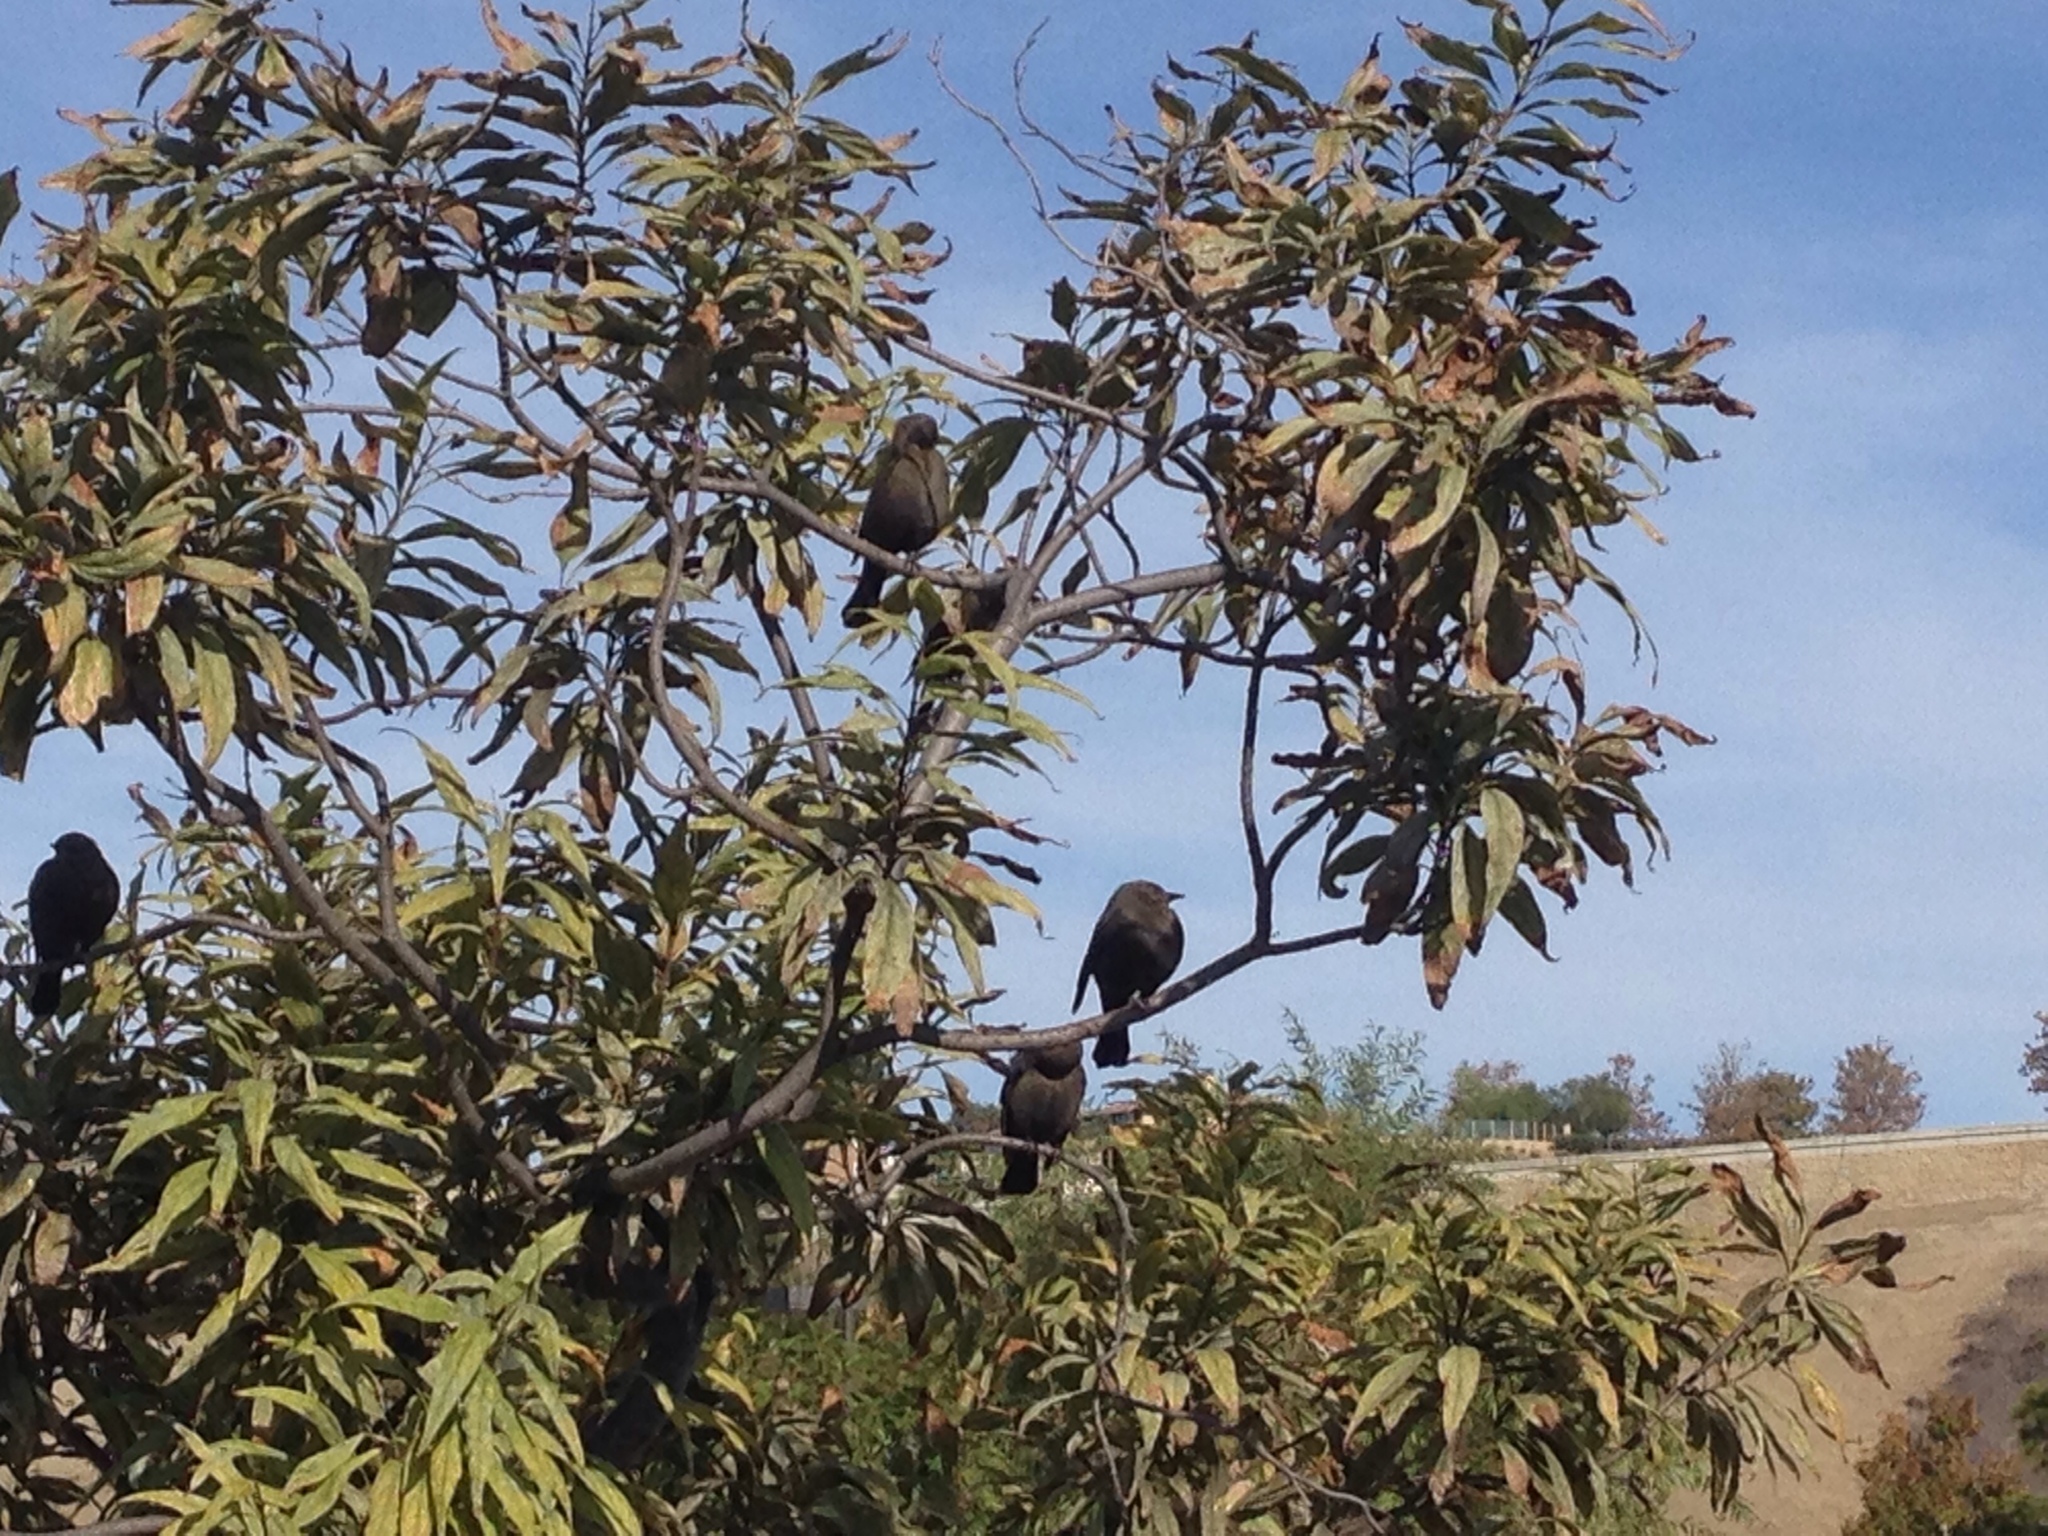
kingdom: Animalia
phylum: Chordata
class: Aves
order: Passeriformes
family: Icteridae
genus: Euphagus
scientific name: Euphagus cyanocephalus
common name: Brewer's blackbird
